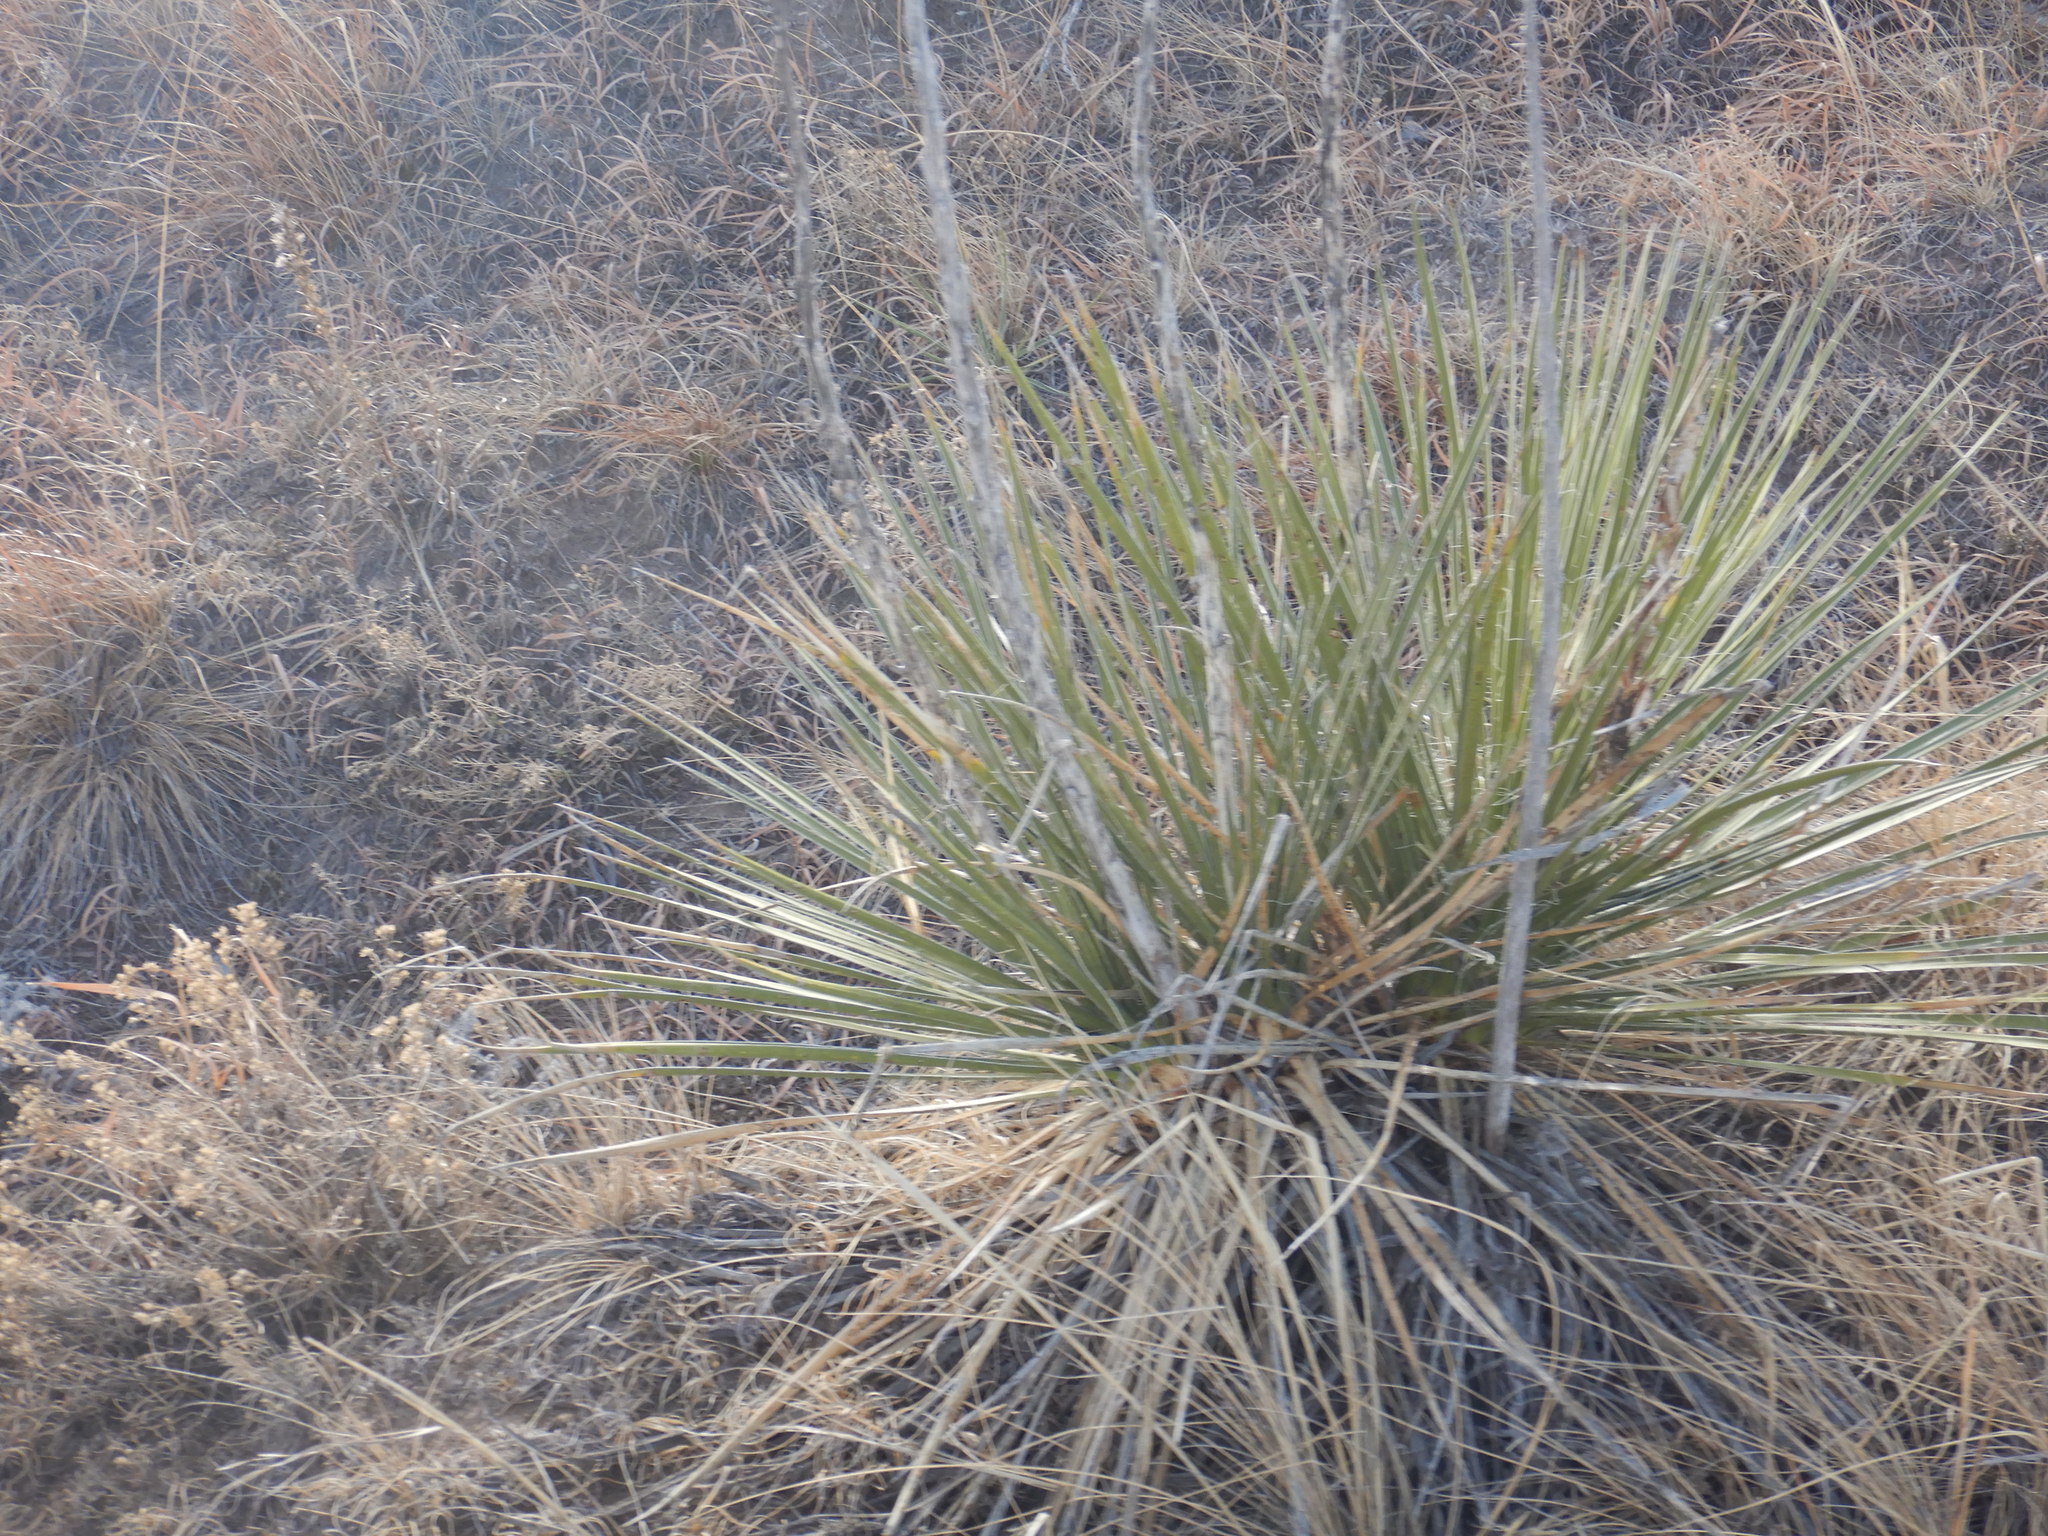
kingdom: Plantae
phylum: Tracheophyta
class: Liliopsida
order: Asparagales
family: Asparagaceae
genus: Yucca
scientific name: Yucca glauca
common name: Great plains yucca
